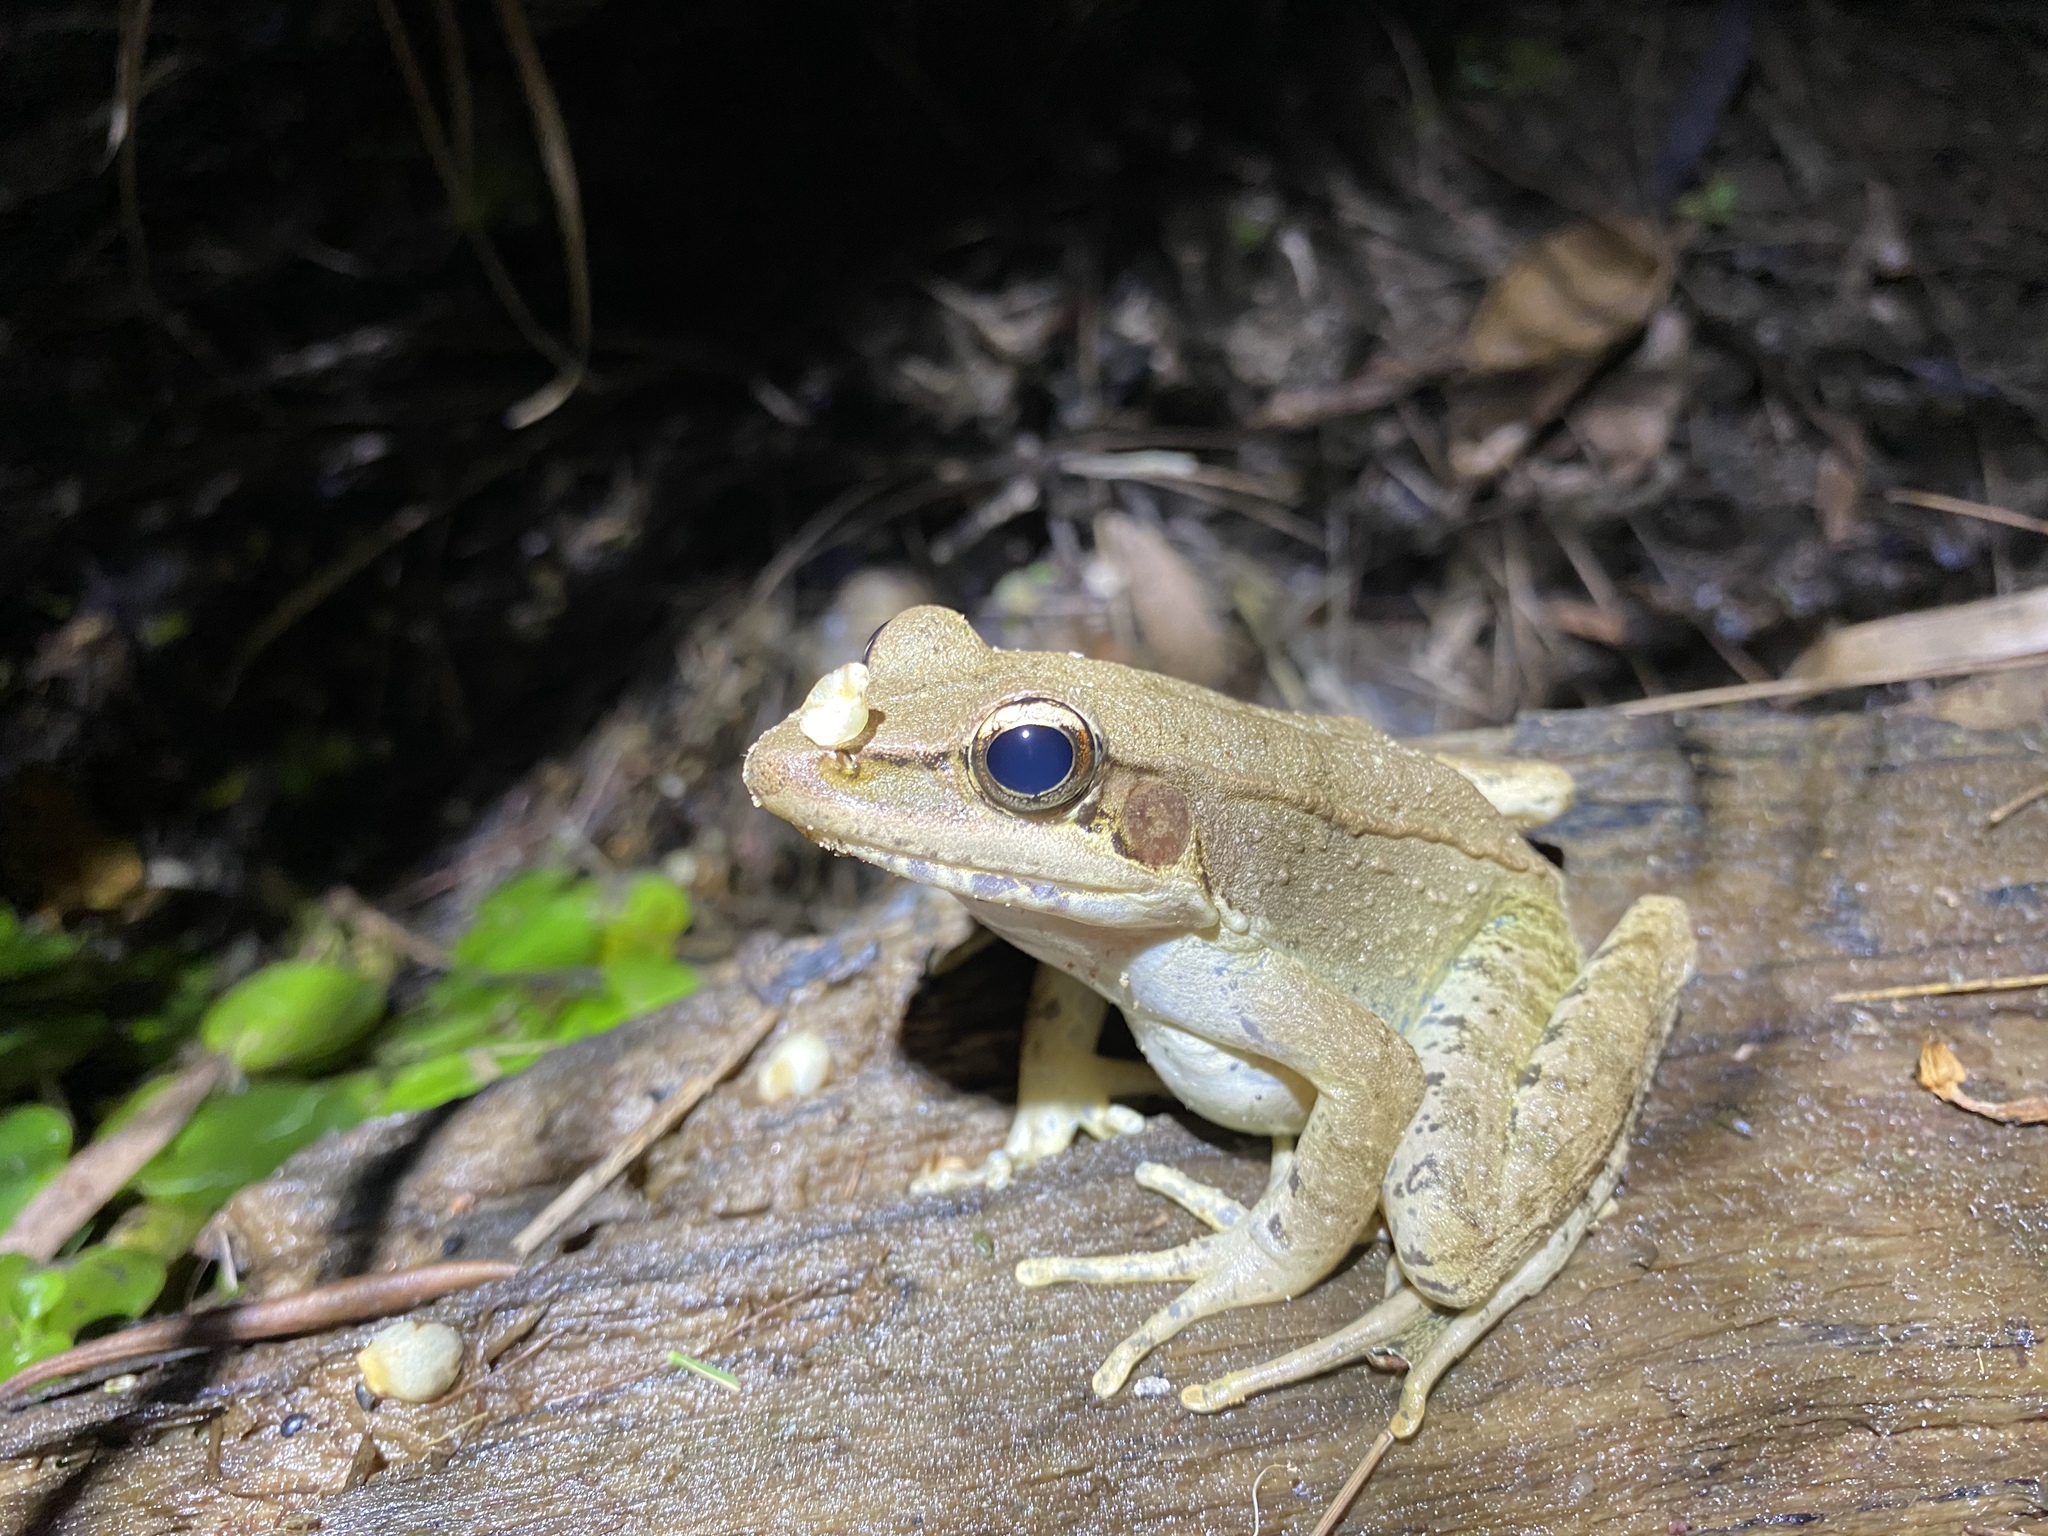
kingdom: Animalia
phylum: Chordata
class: Amphibia
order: Anura
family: Ranidae
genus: Papurana
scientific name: Papurana daemeli
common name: Arhem rana
